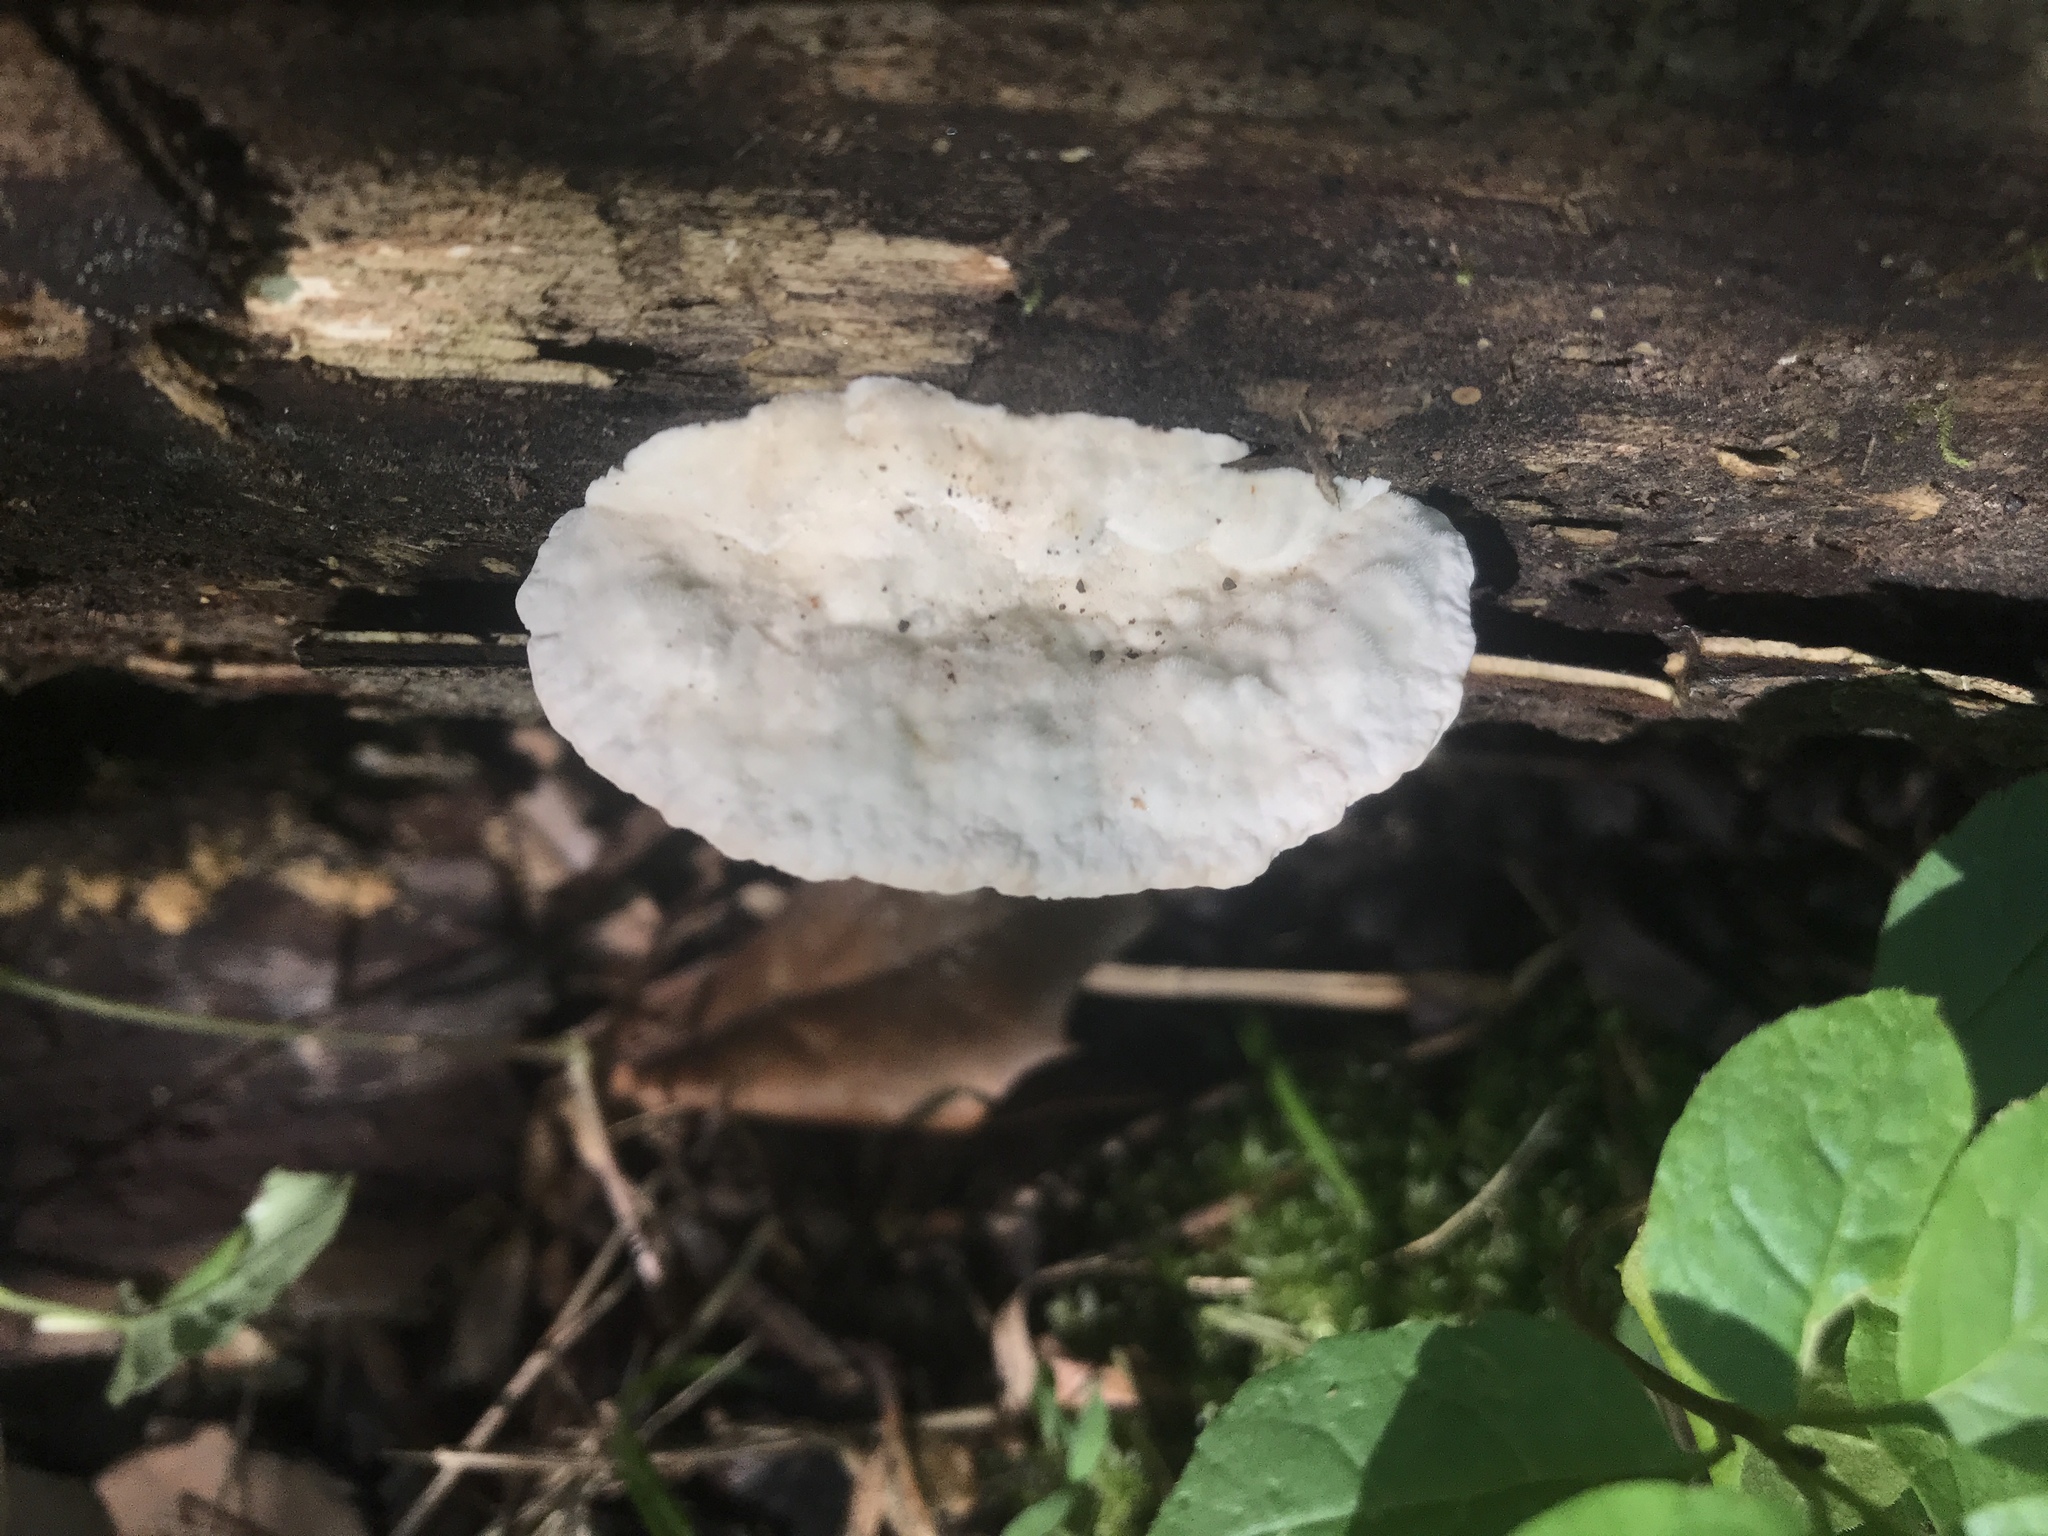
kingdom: Fungi
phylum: Basidiomycota
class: Agaricomycetes
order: Polyporales
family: Polyporaceae
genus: Trametes
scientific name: Trametes gibbosa
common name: Lumpy bracket
